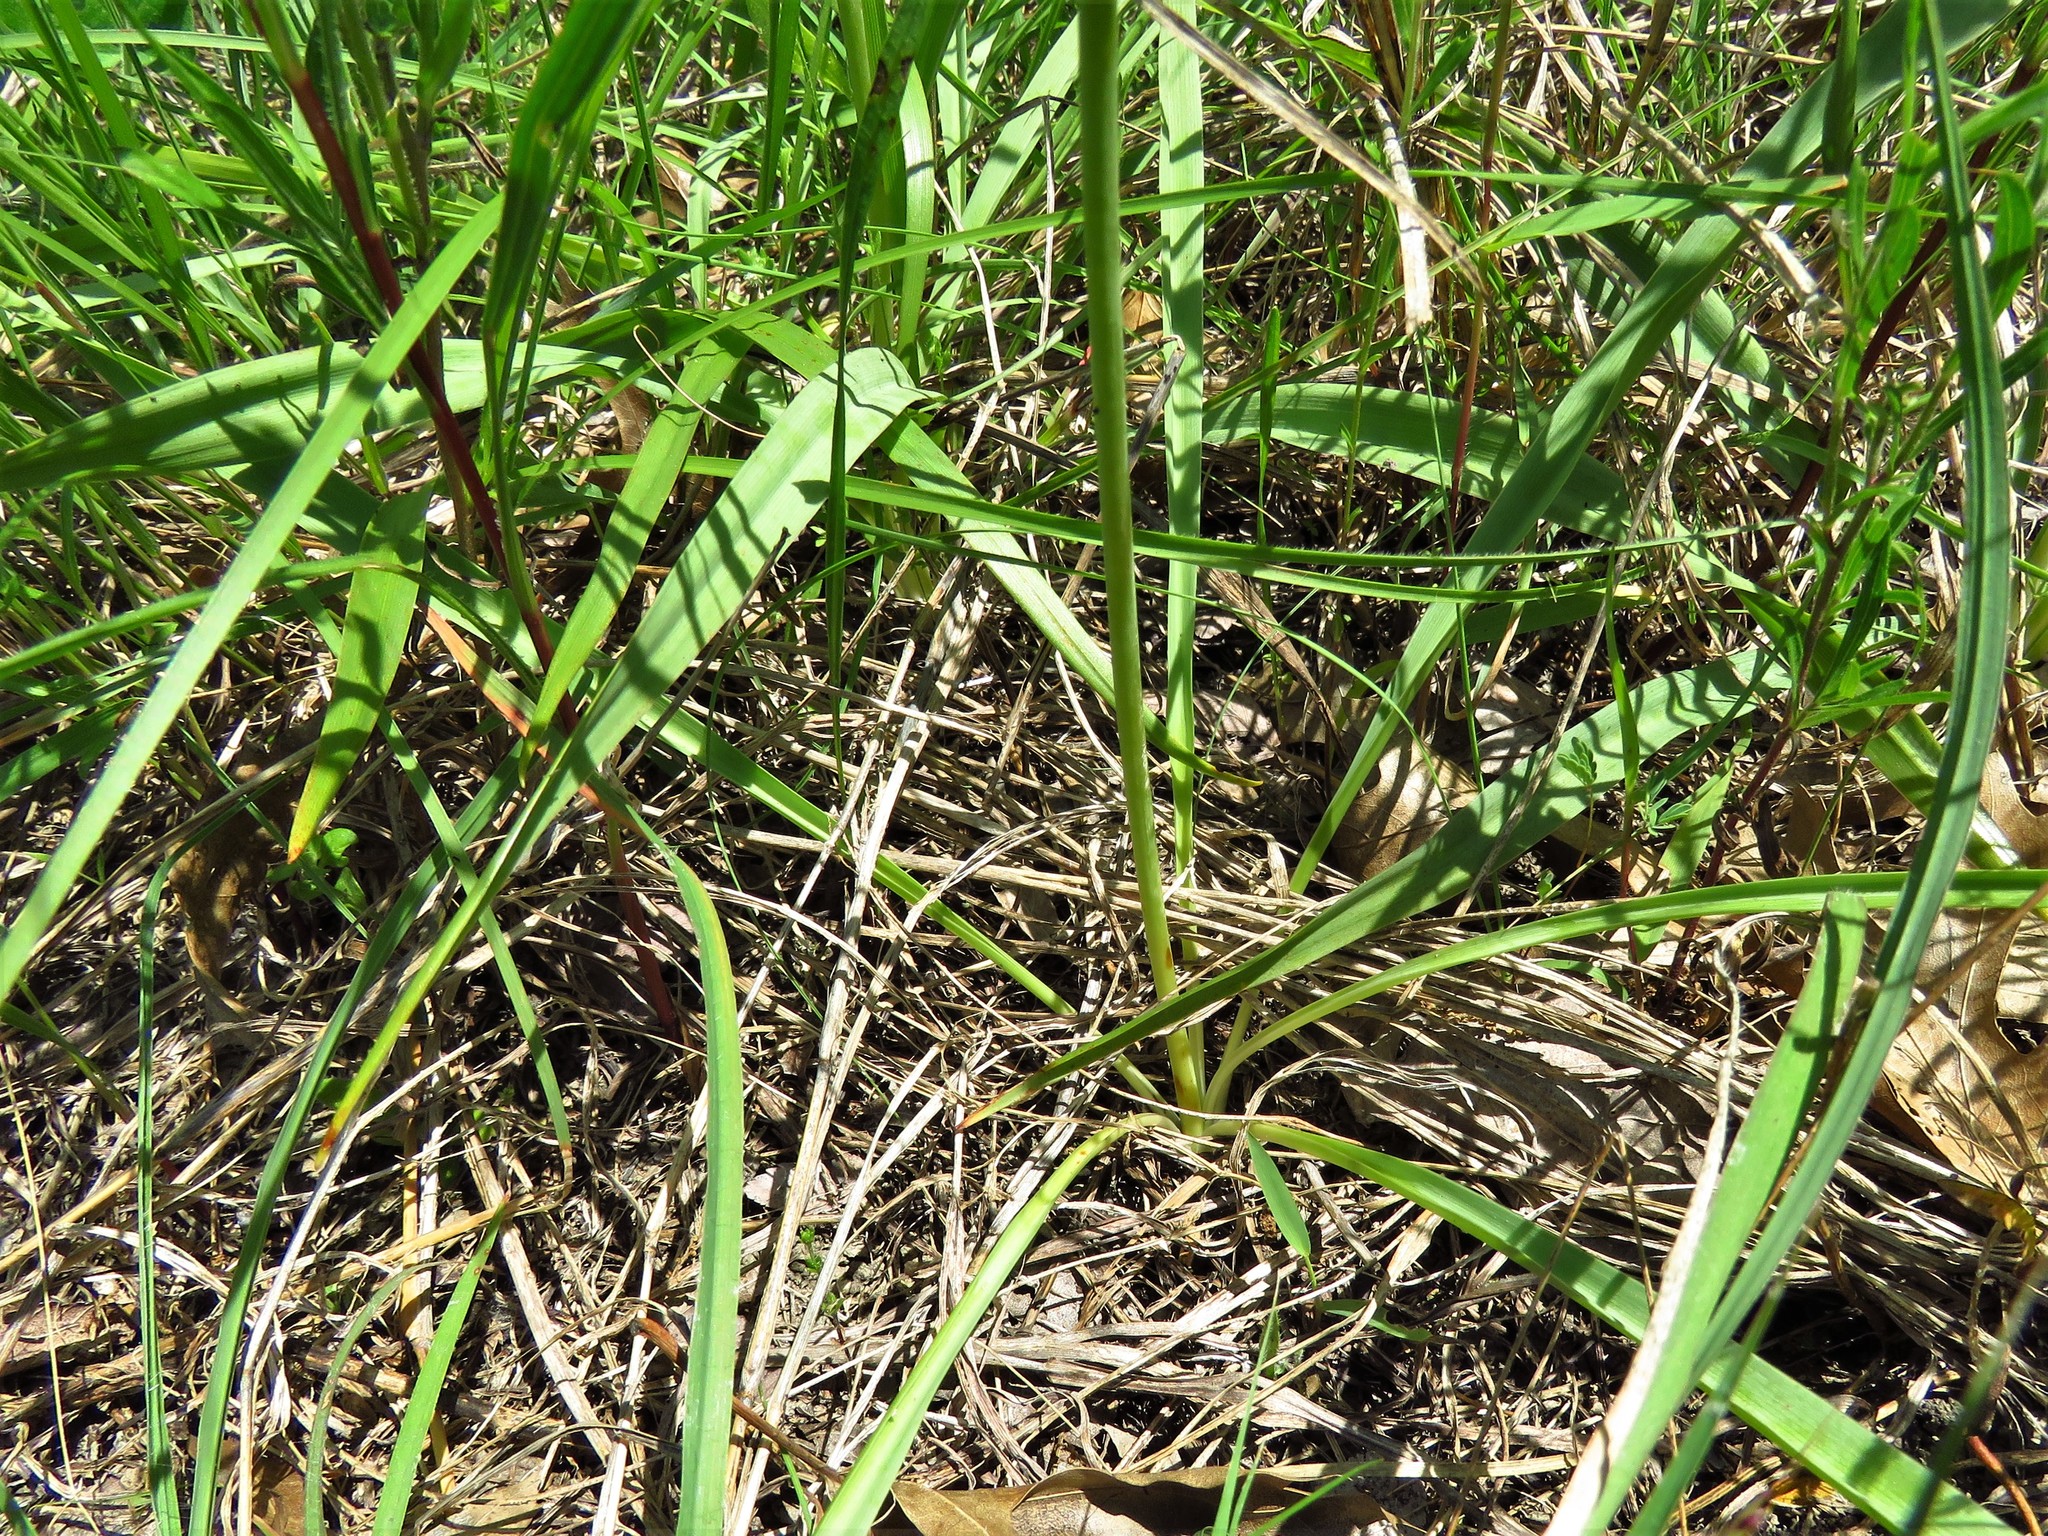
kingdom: Plantae
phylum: Tracheophyta
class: Liliopsida
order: Asparagales
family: Asparagaceae
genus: Camassia
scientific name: Camassia scilloides
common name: Wild hyacinth
